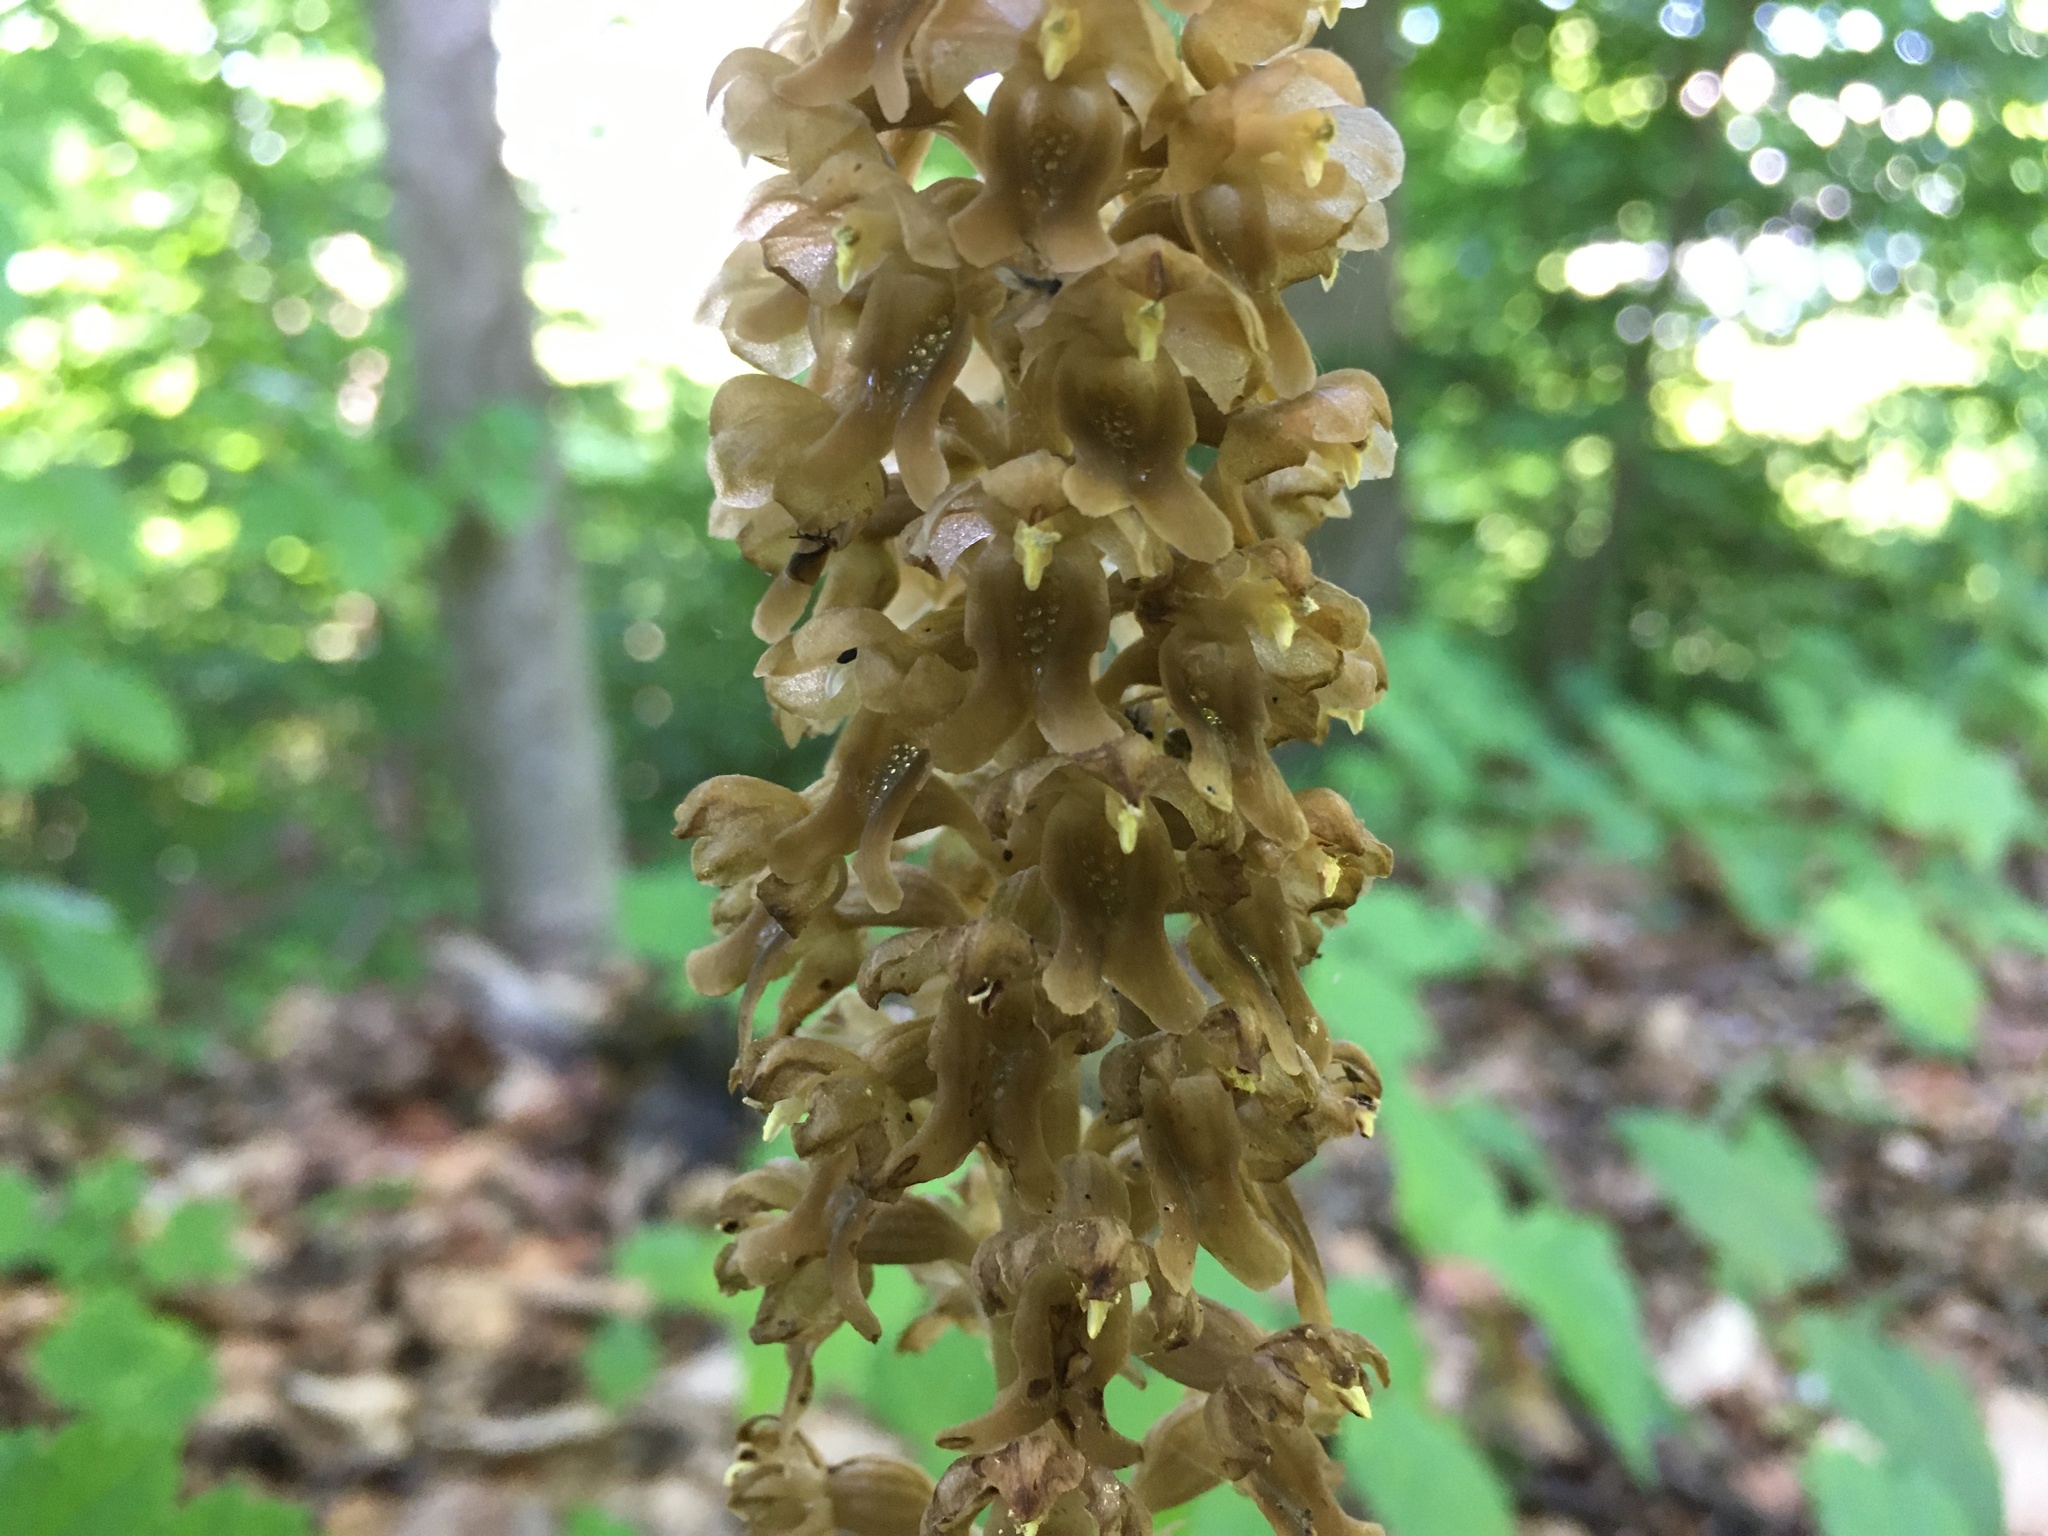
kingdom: Plantae
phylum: Tracheophyta
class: Liliopsida
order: Asparagales
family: Orchidaceae
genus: Neottia
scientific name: Neottia nidus-avis
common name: Bird's-nest orchid
